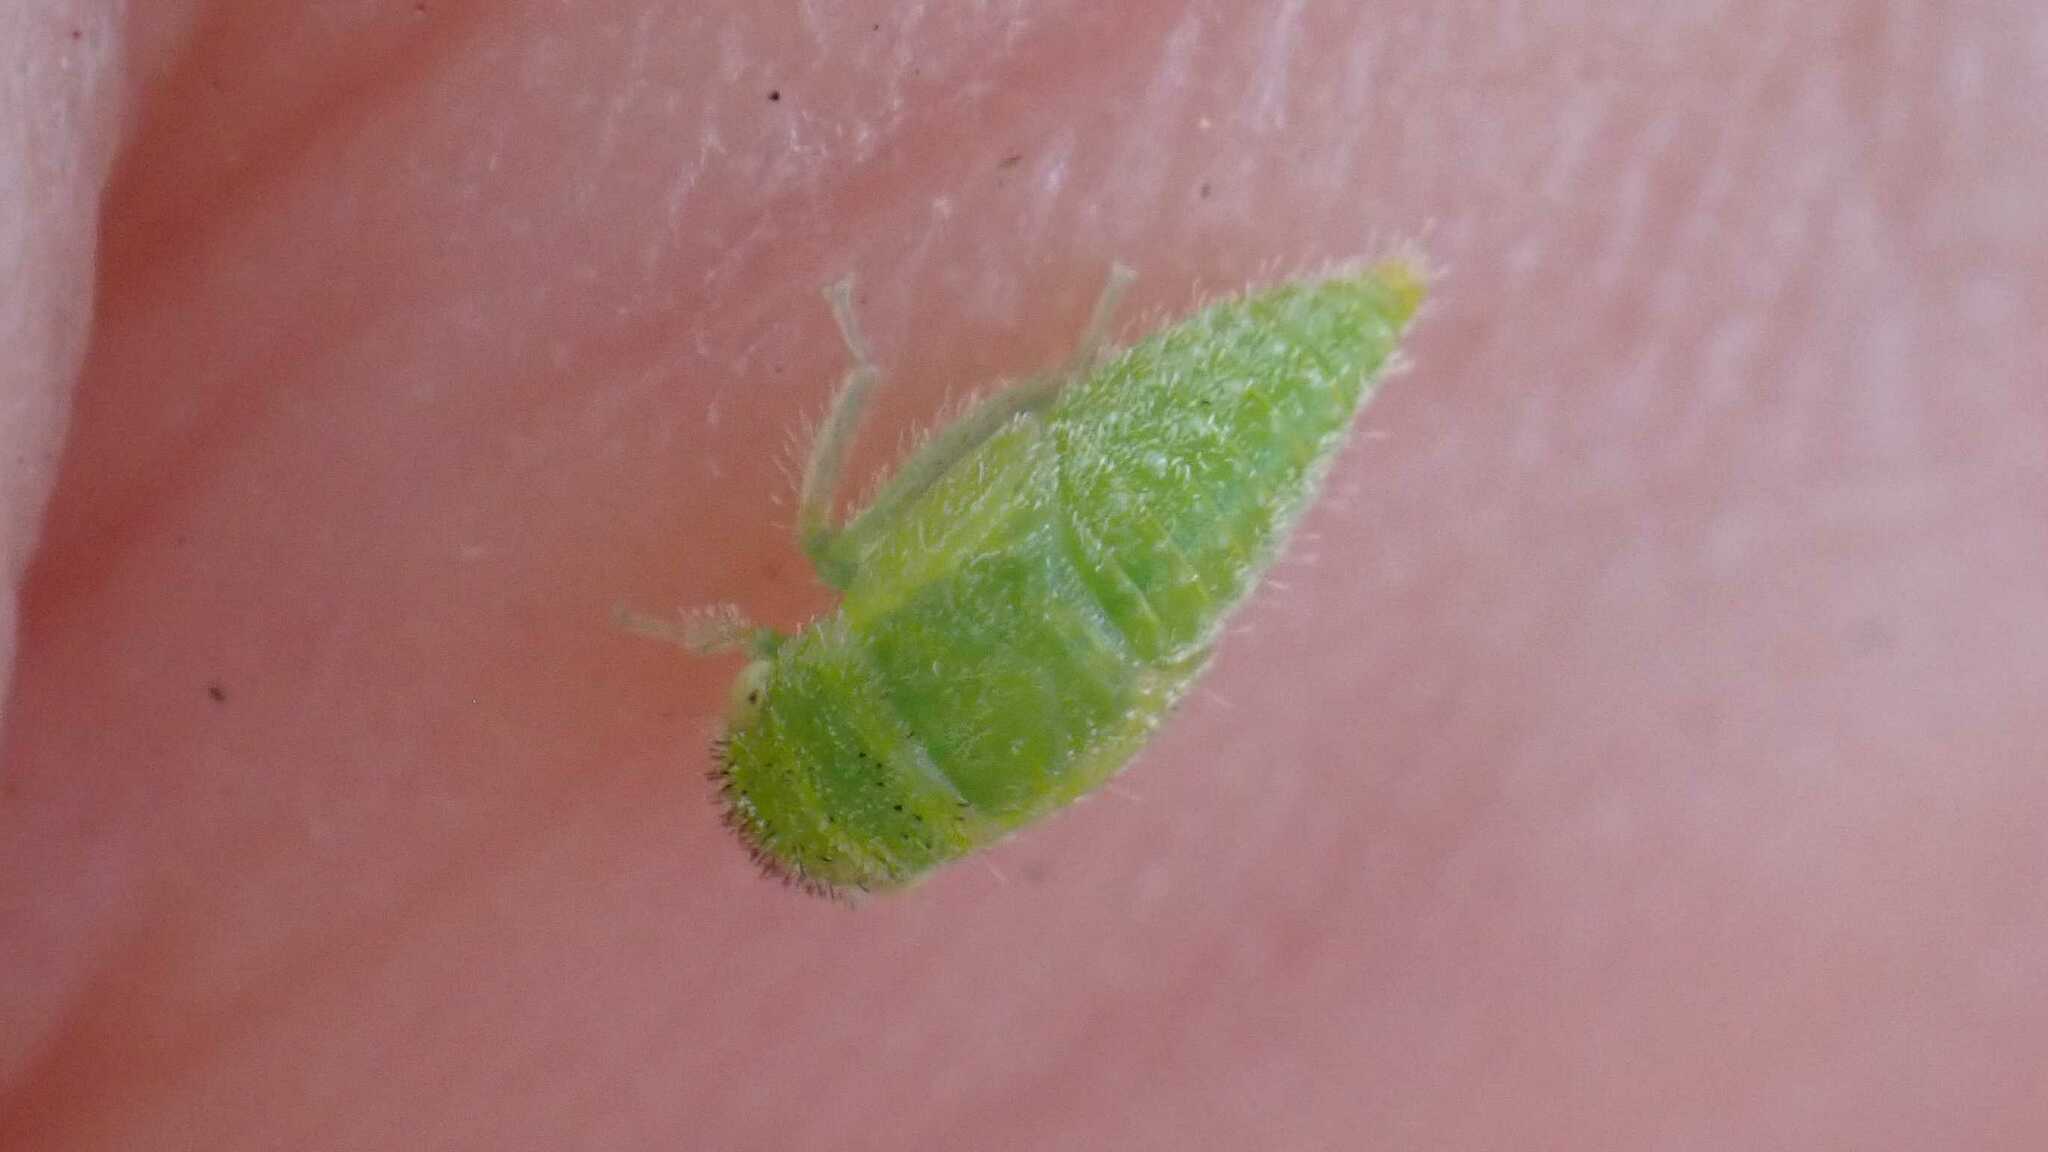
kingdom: Animalia
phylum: Arthropoda
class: Insecta
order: Hemiptera
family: Cicadellidae
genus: Stragania
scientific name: Stragania apicalis
